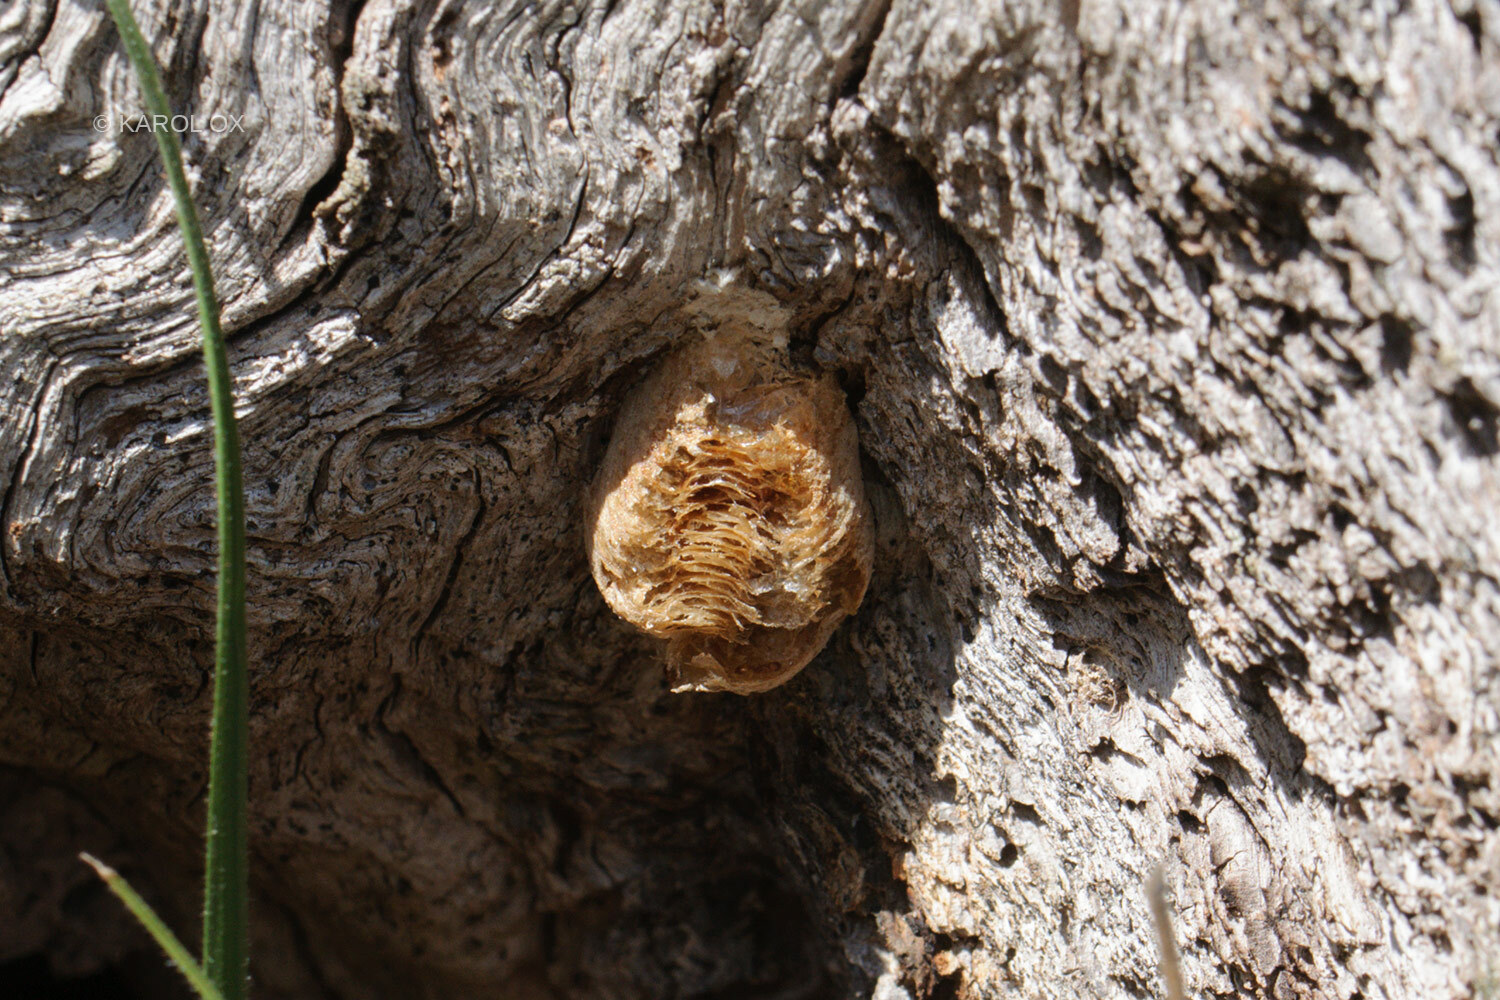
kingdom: Animalia
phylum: Arthropoda
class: Insecta
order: Mantodea
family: Mantidae
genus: Mantis
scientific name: Mantis religiosa
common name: Praying mantis
